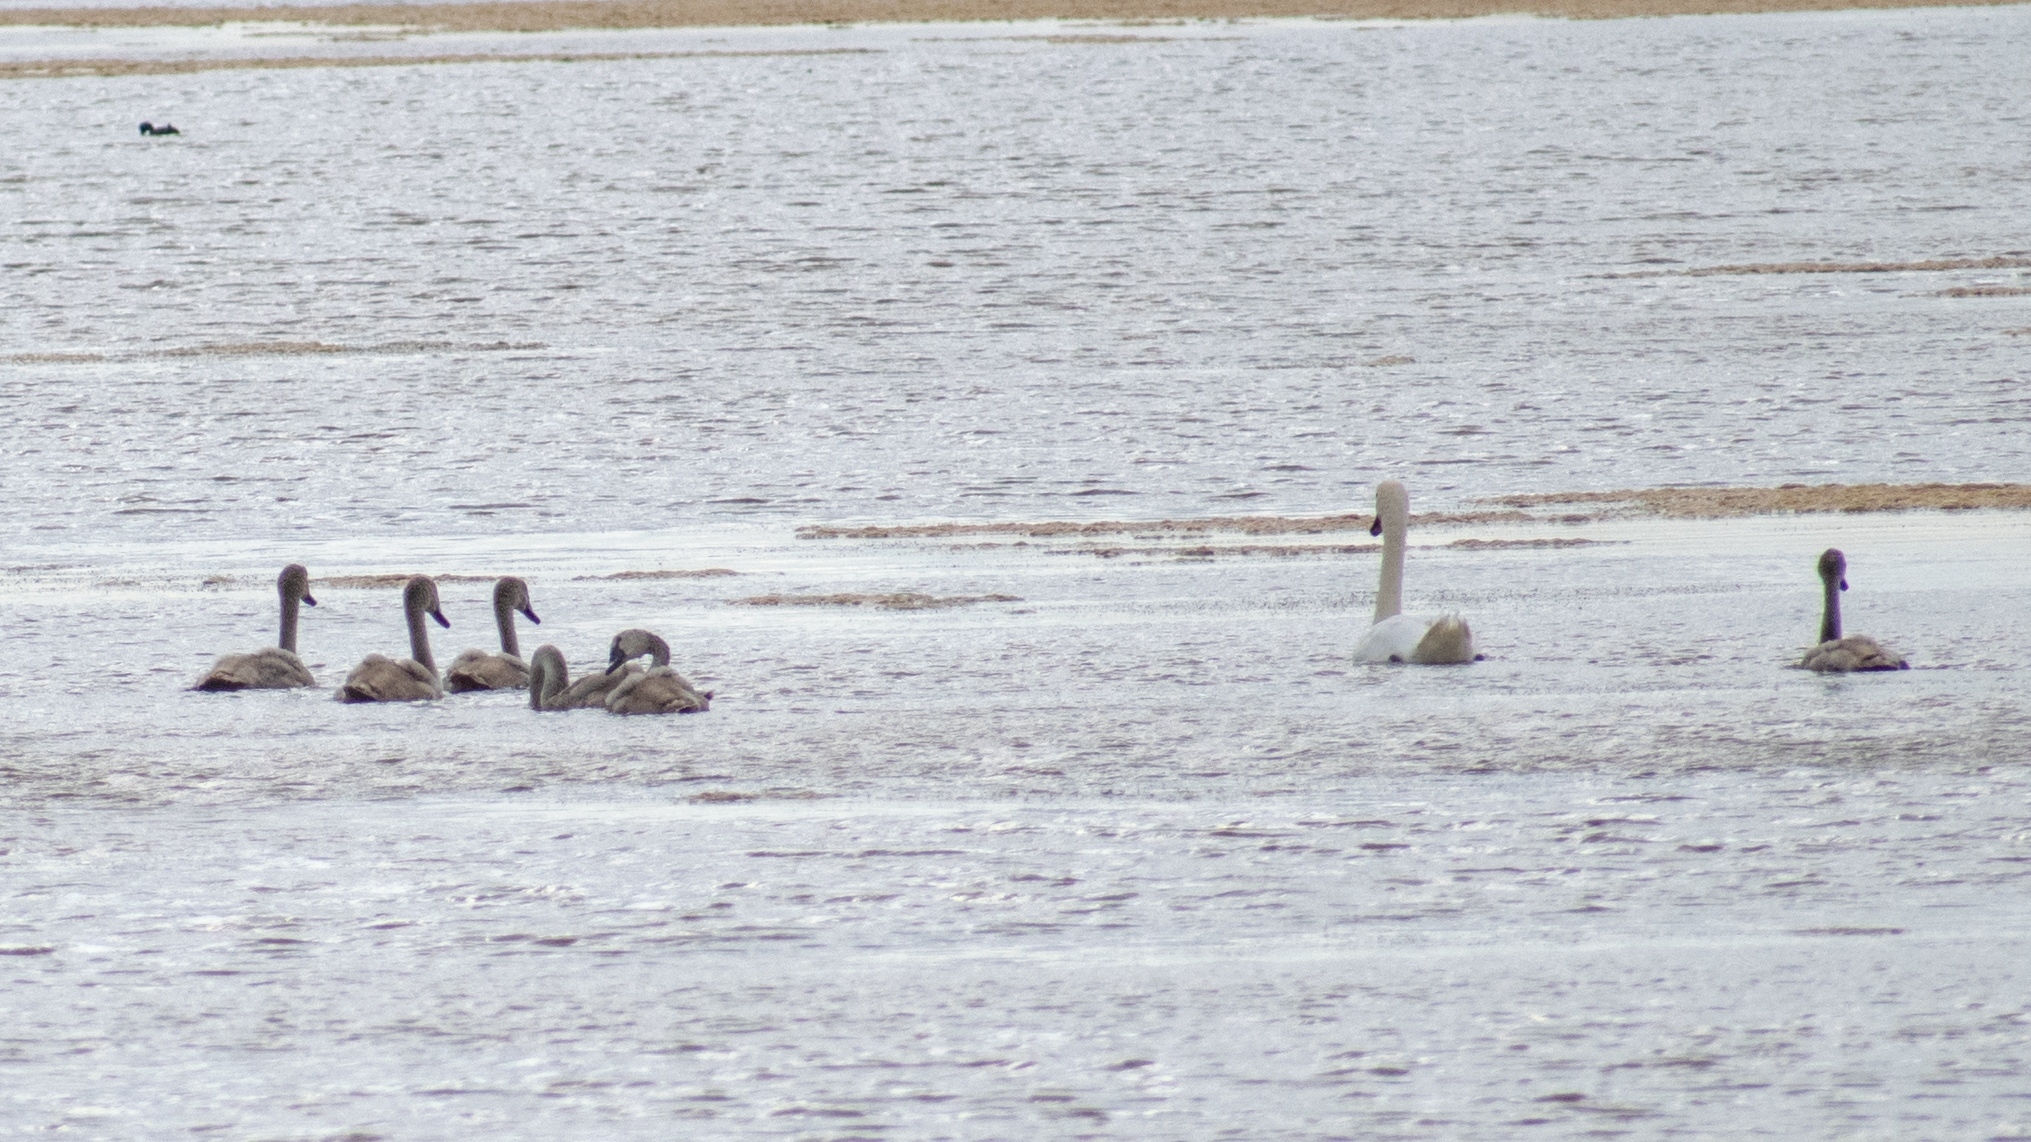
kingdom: Animalia
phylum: Chordata
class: Aves
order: Anseriformes
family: Anatidae
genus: Cygnus
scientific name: Cygnus olor
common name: Mute swan
